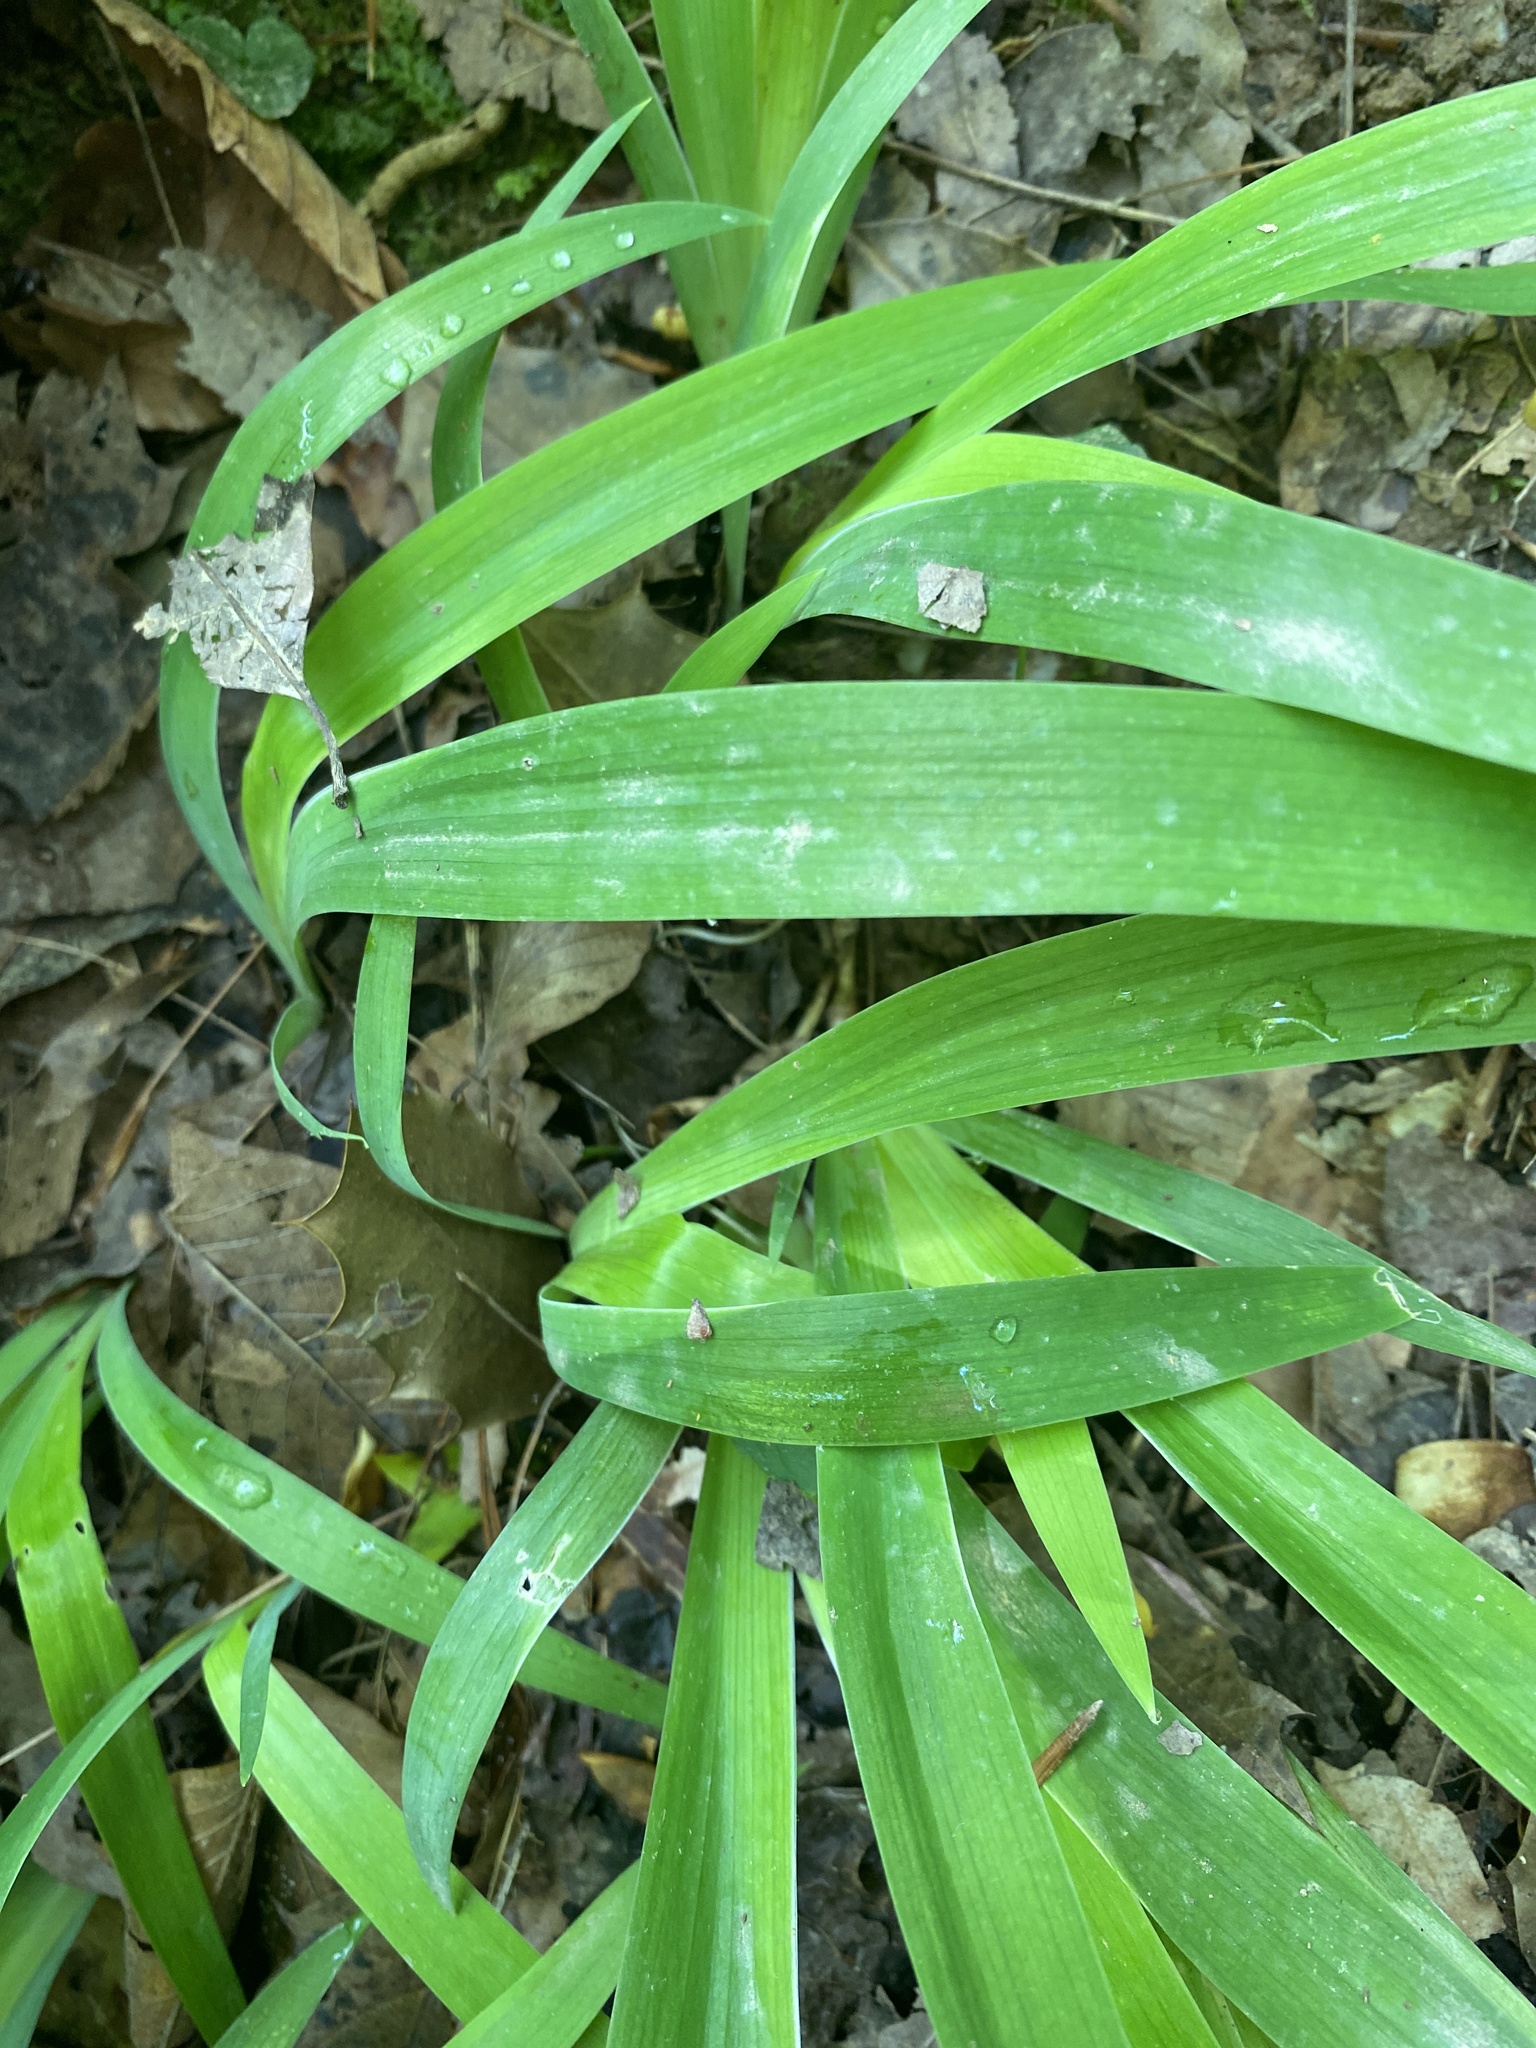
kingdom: Plantae
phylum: Tracheophyta
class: Liliopsida
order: Asparagales
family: Iridaceae
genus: Iris
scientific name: Iris cristata
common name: Crested iris
